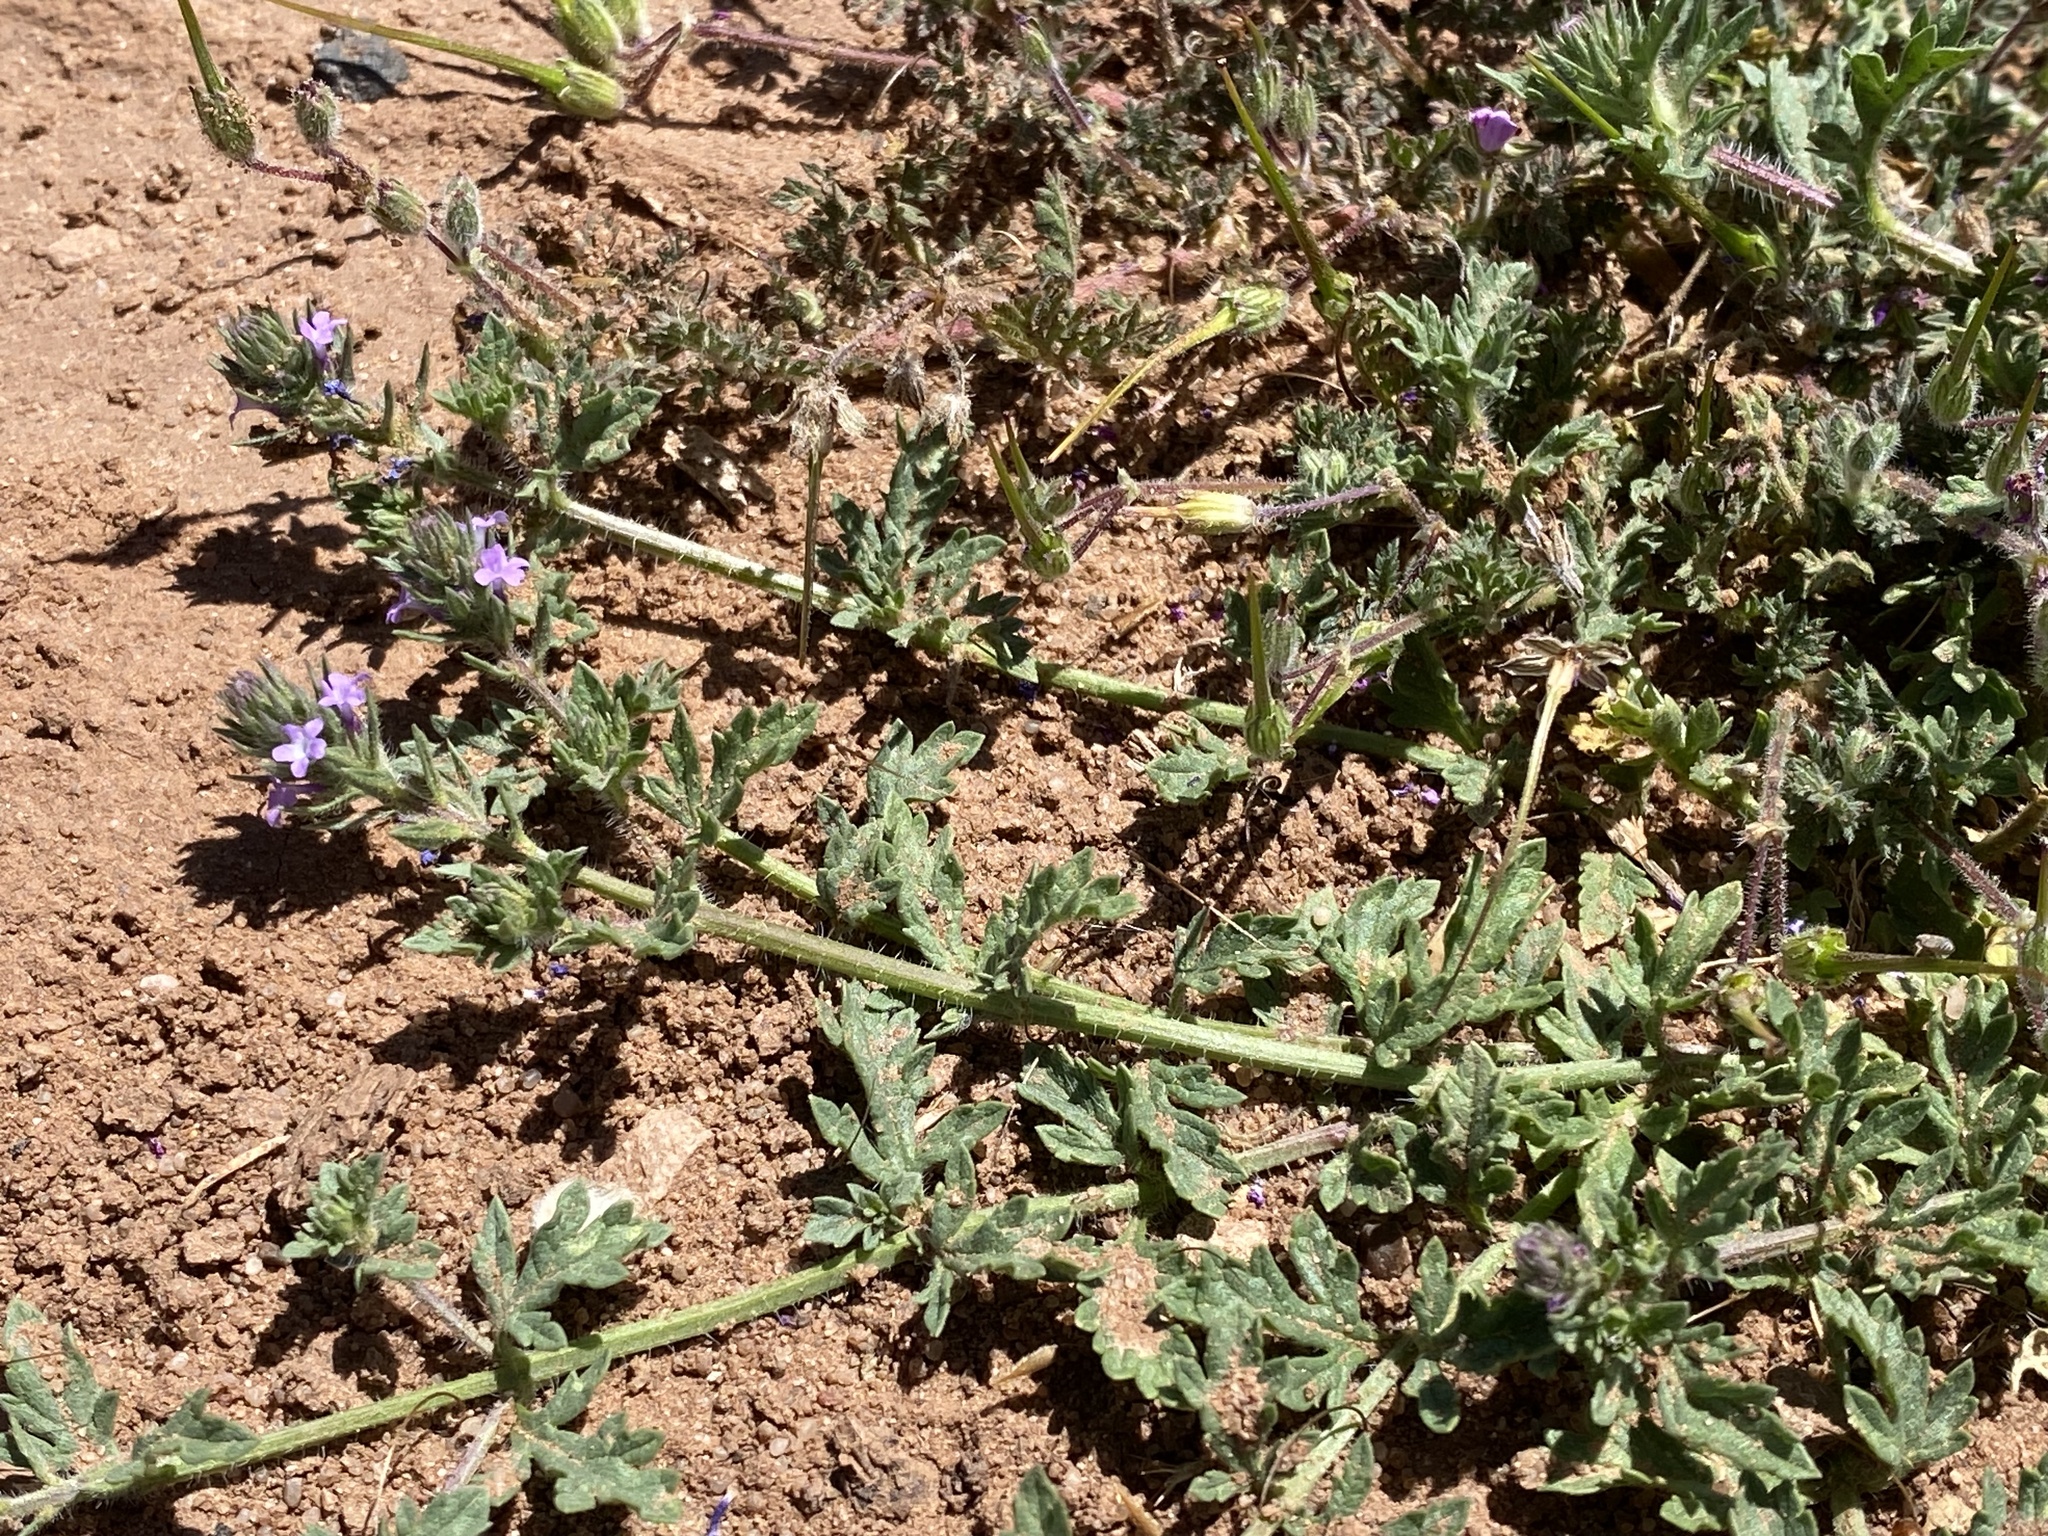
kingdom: Plantae
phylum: Tracheophyta
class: Magnoliopsida
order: Lamiales
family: Verbenaceae
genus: Verbena
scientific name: Verbena bracteata
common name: Bracted vervain
